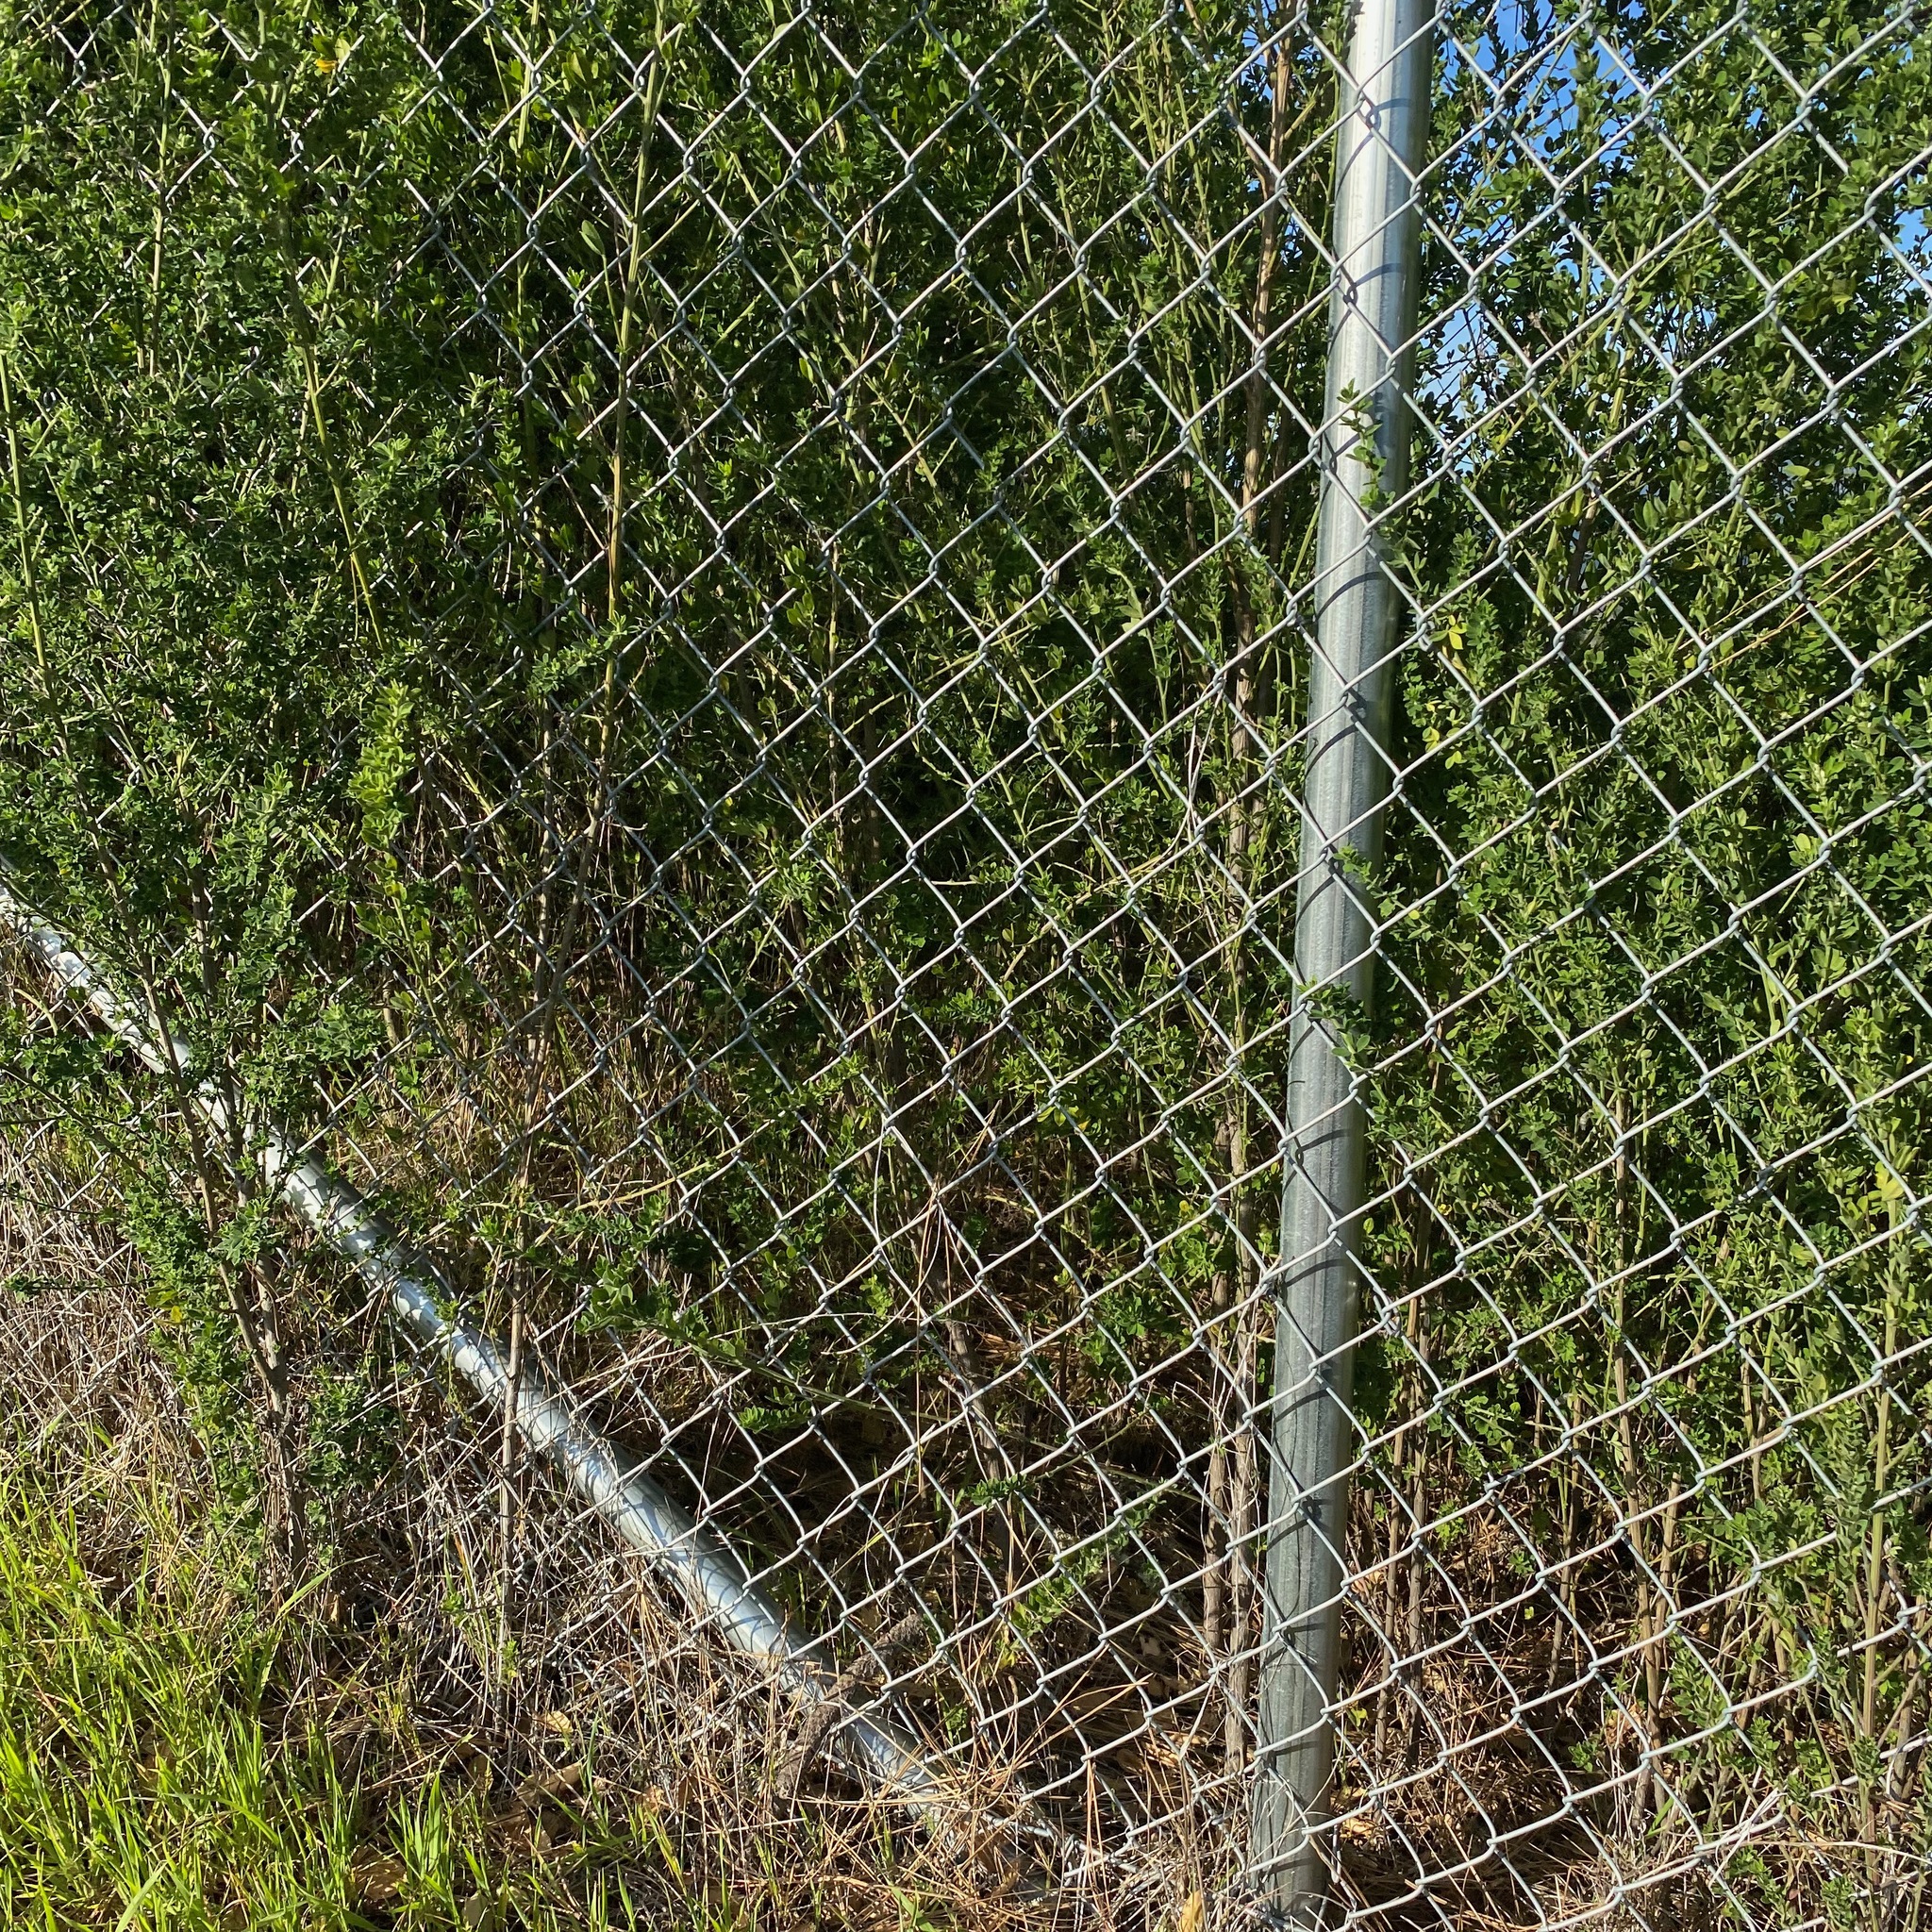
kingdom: Plantae
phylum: Tracheophyta
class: Magnoliopsida
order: Fabales
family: Fabaceae
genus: Genista
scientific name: Genista monspessulana
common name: Montpellier broom
